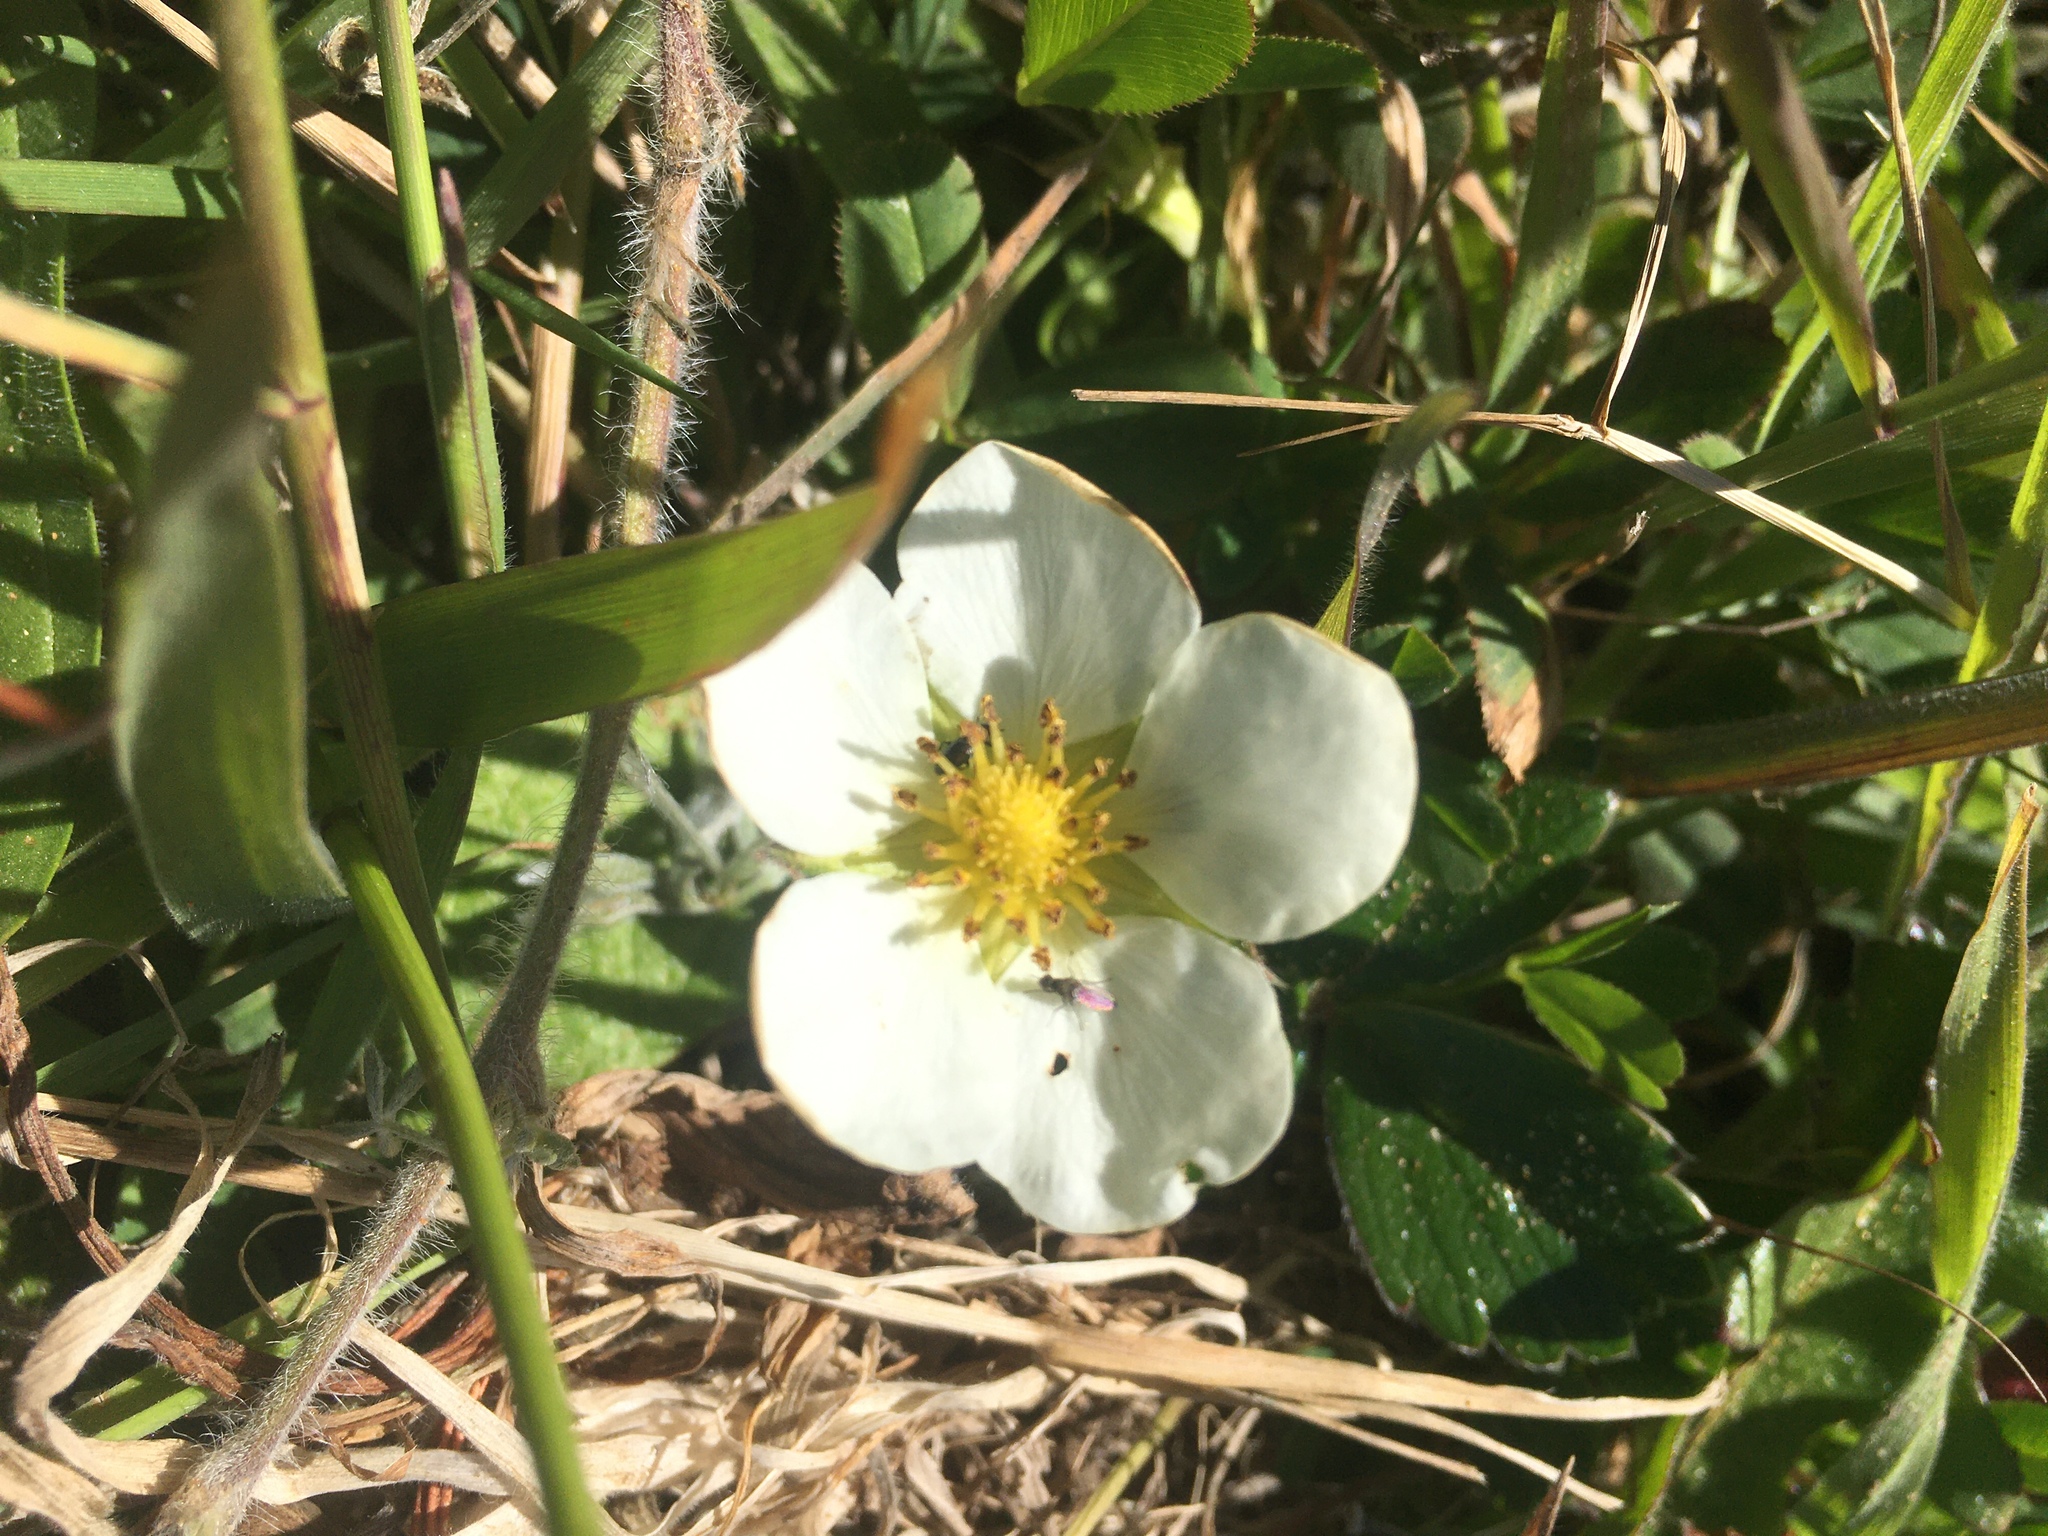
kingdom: Plantae
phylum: Tracheophyta
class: Magnoliopsida
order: Rosales
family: Rosaceae
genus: Fragaria
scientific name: Fragaria chiloensis
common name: Beach strawberry
